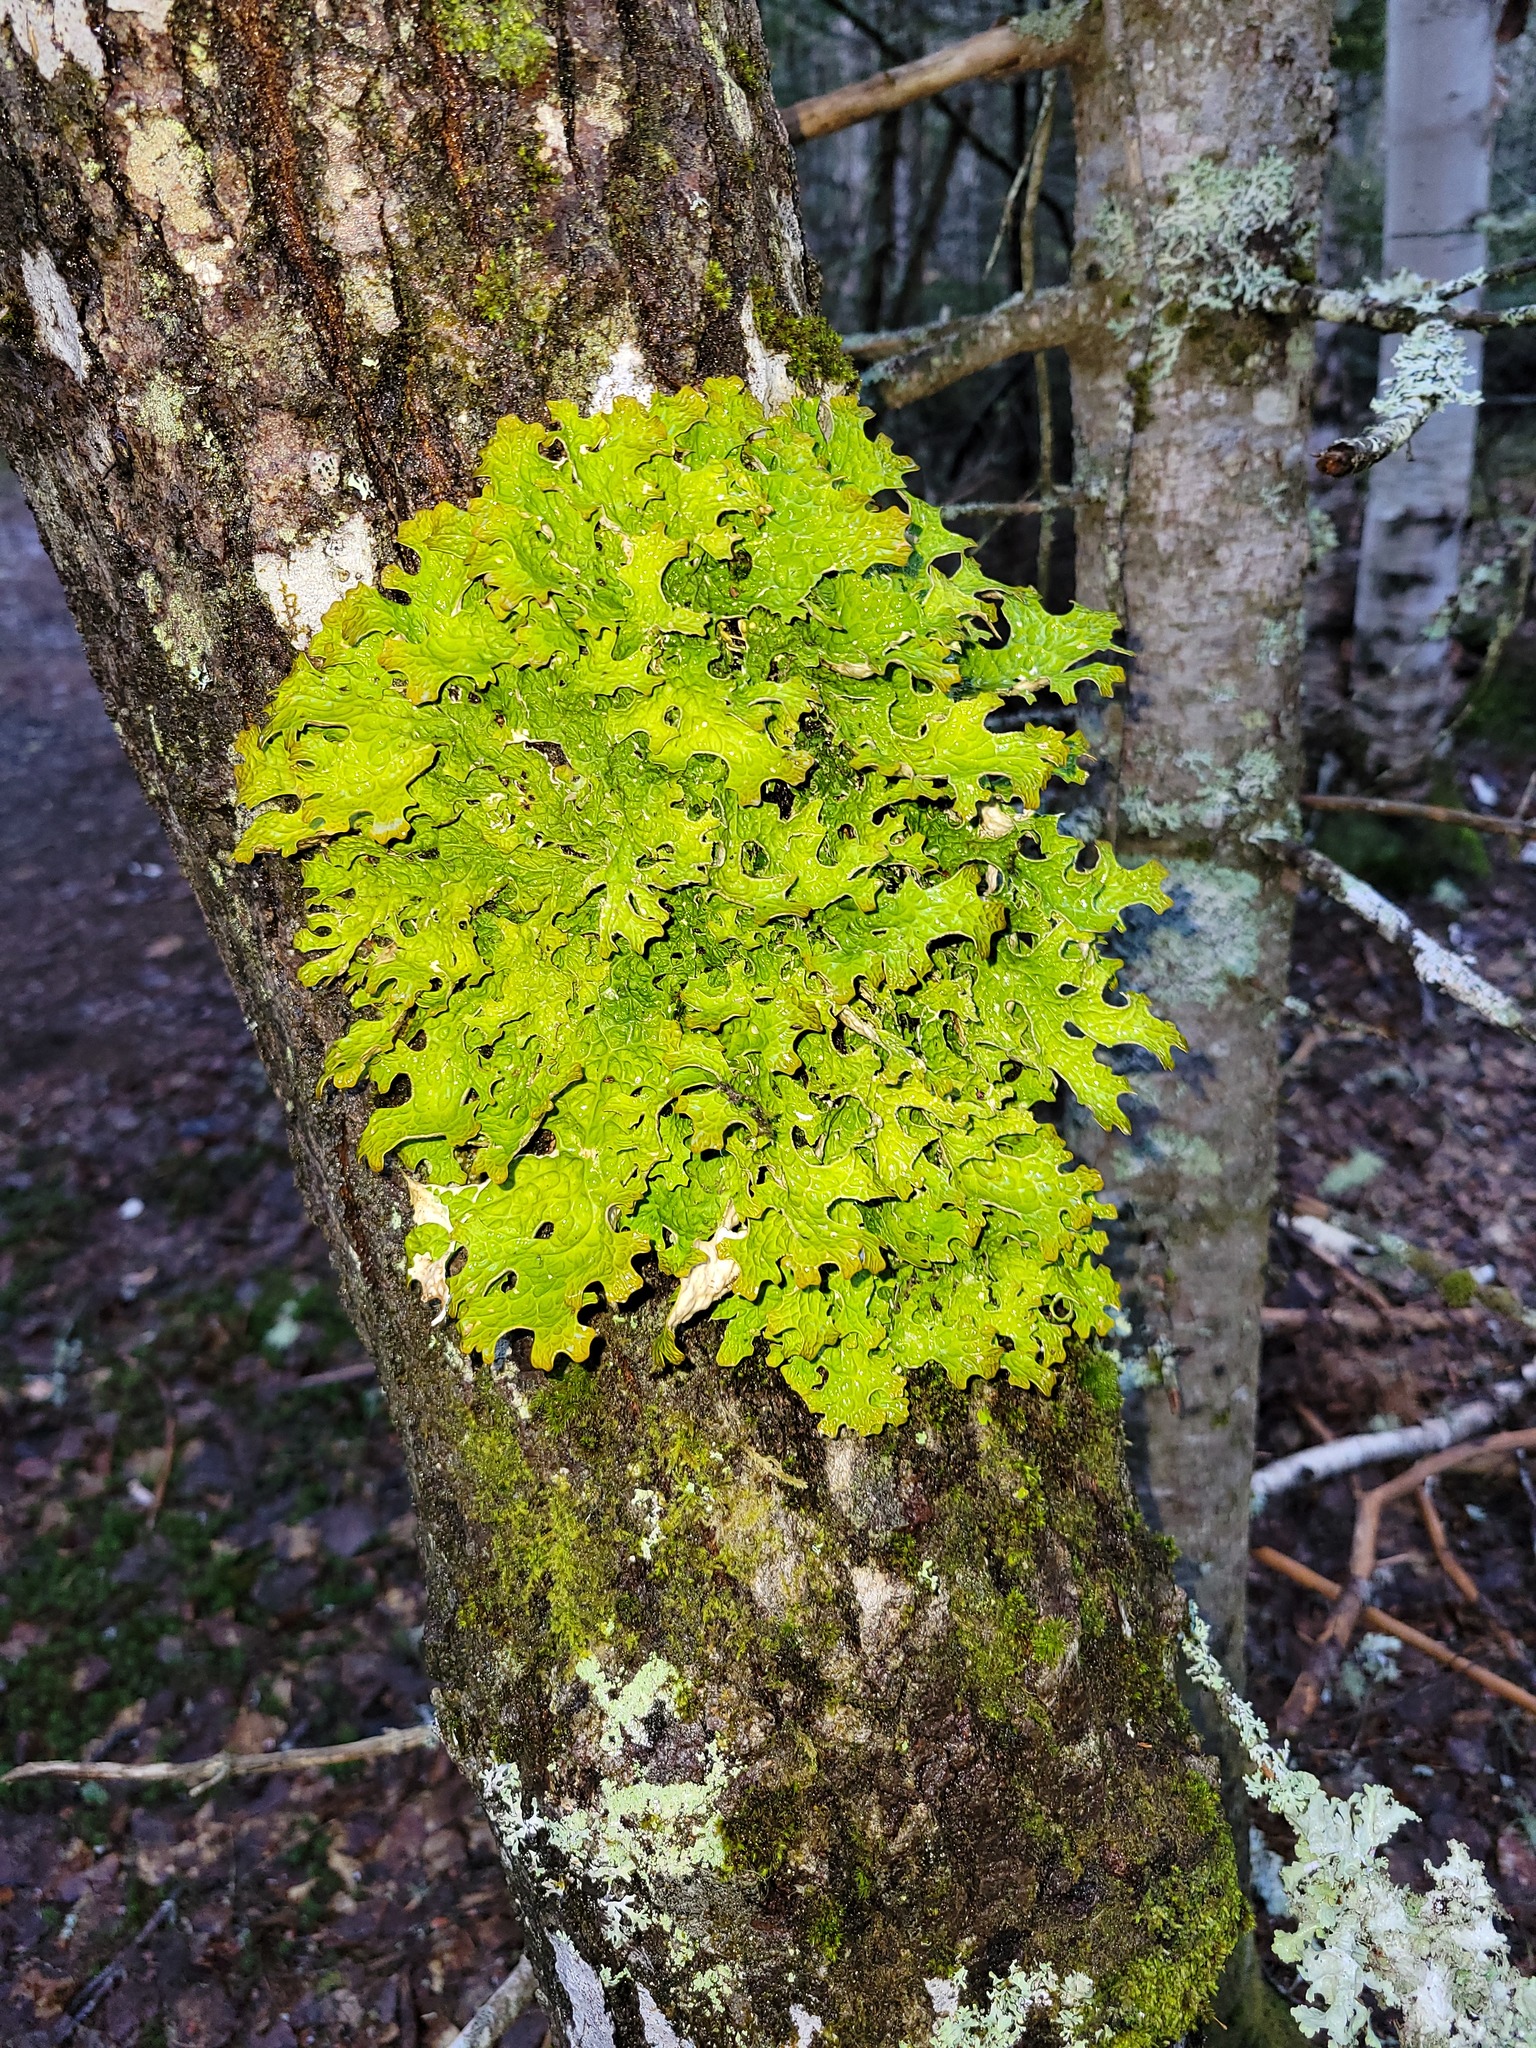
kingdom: Fungi
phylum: Ascomycota
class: Lecanoromycetes
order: Peltigerales
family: Lobariaceae
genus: Lobaria
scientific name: Lobaria pulmonaria
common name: Lungwort
